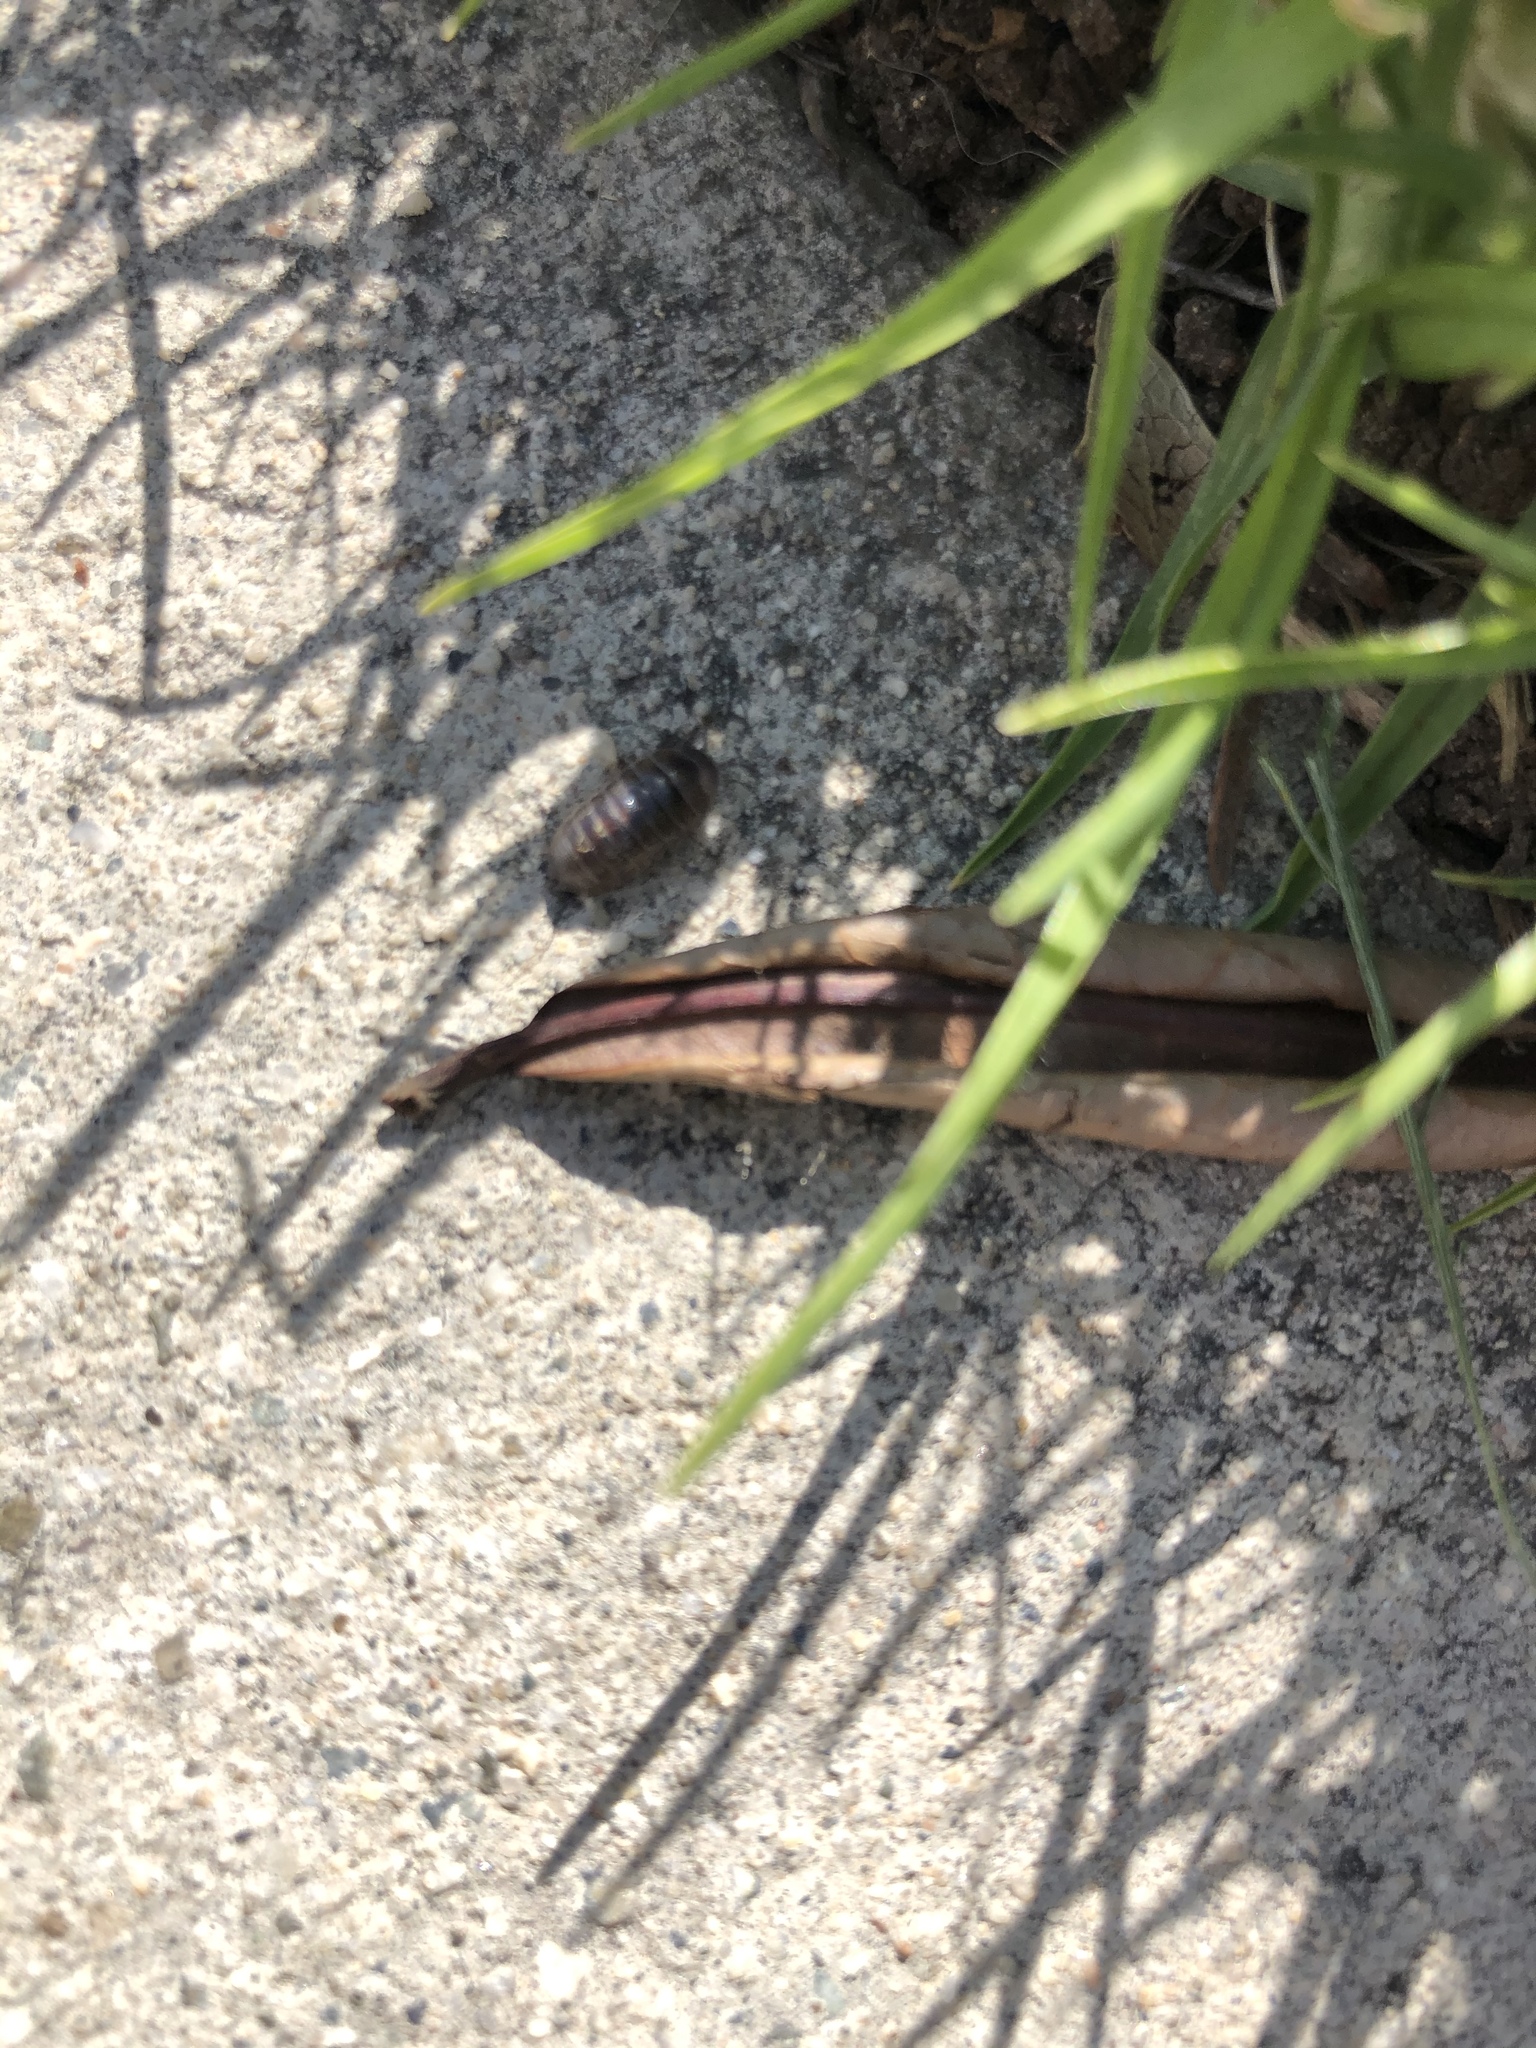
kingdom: Animalia
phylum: Arthropoda
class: Malacostraca
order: Isopoda
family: Armadillidiidae
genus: Armadillidium
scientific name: Armadillidium vulgare
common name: Common pill woodlouse
